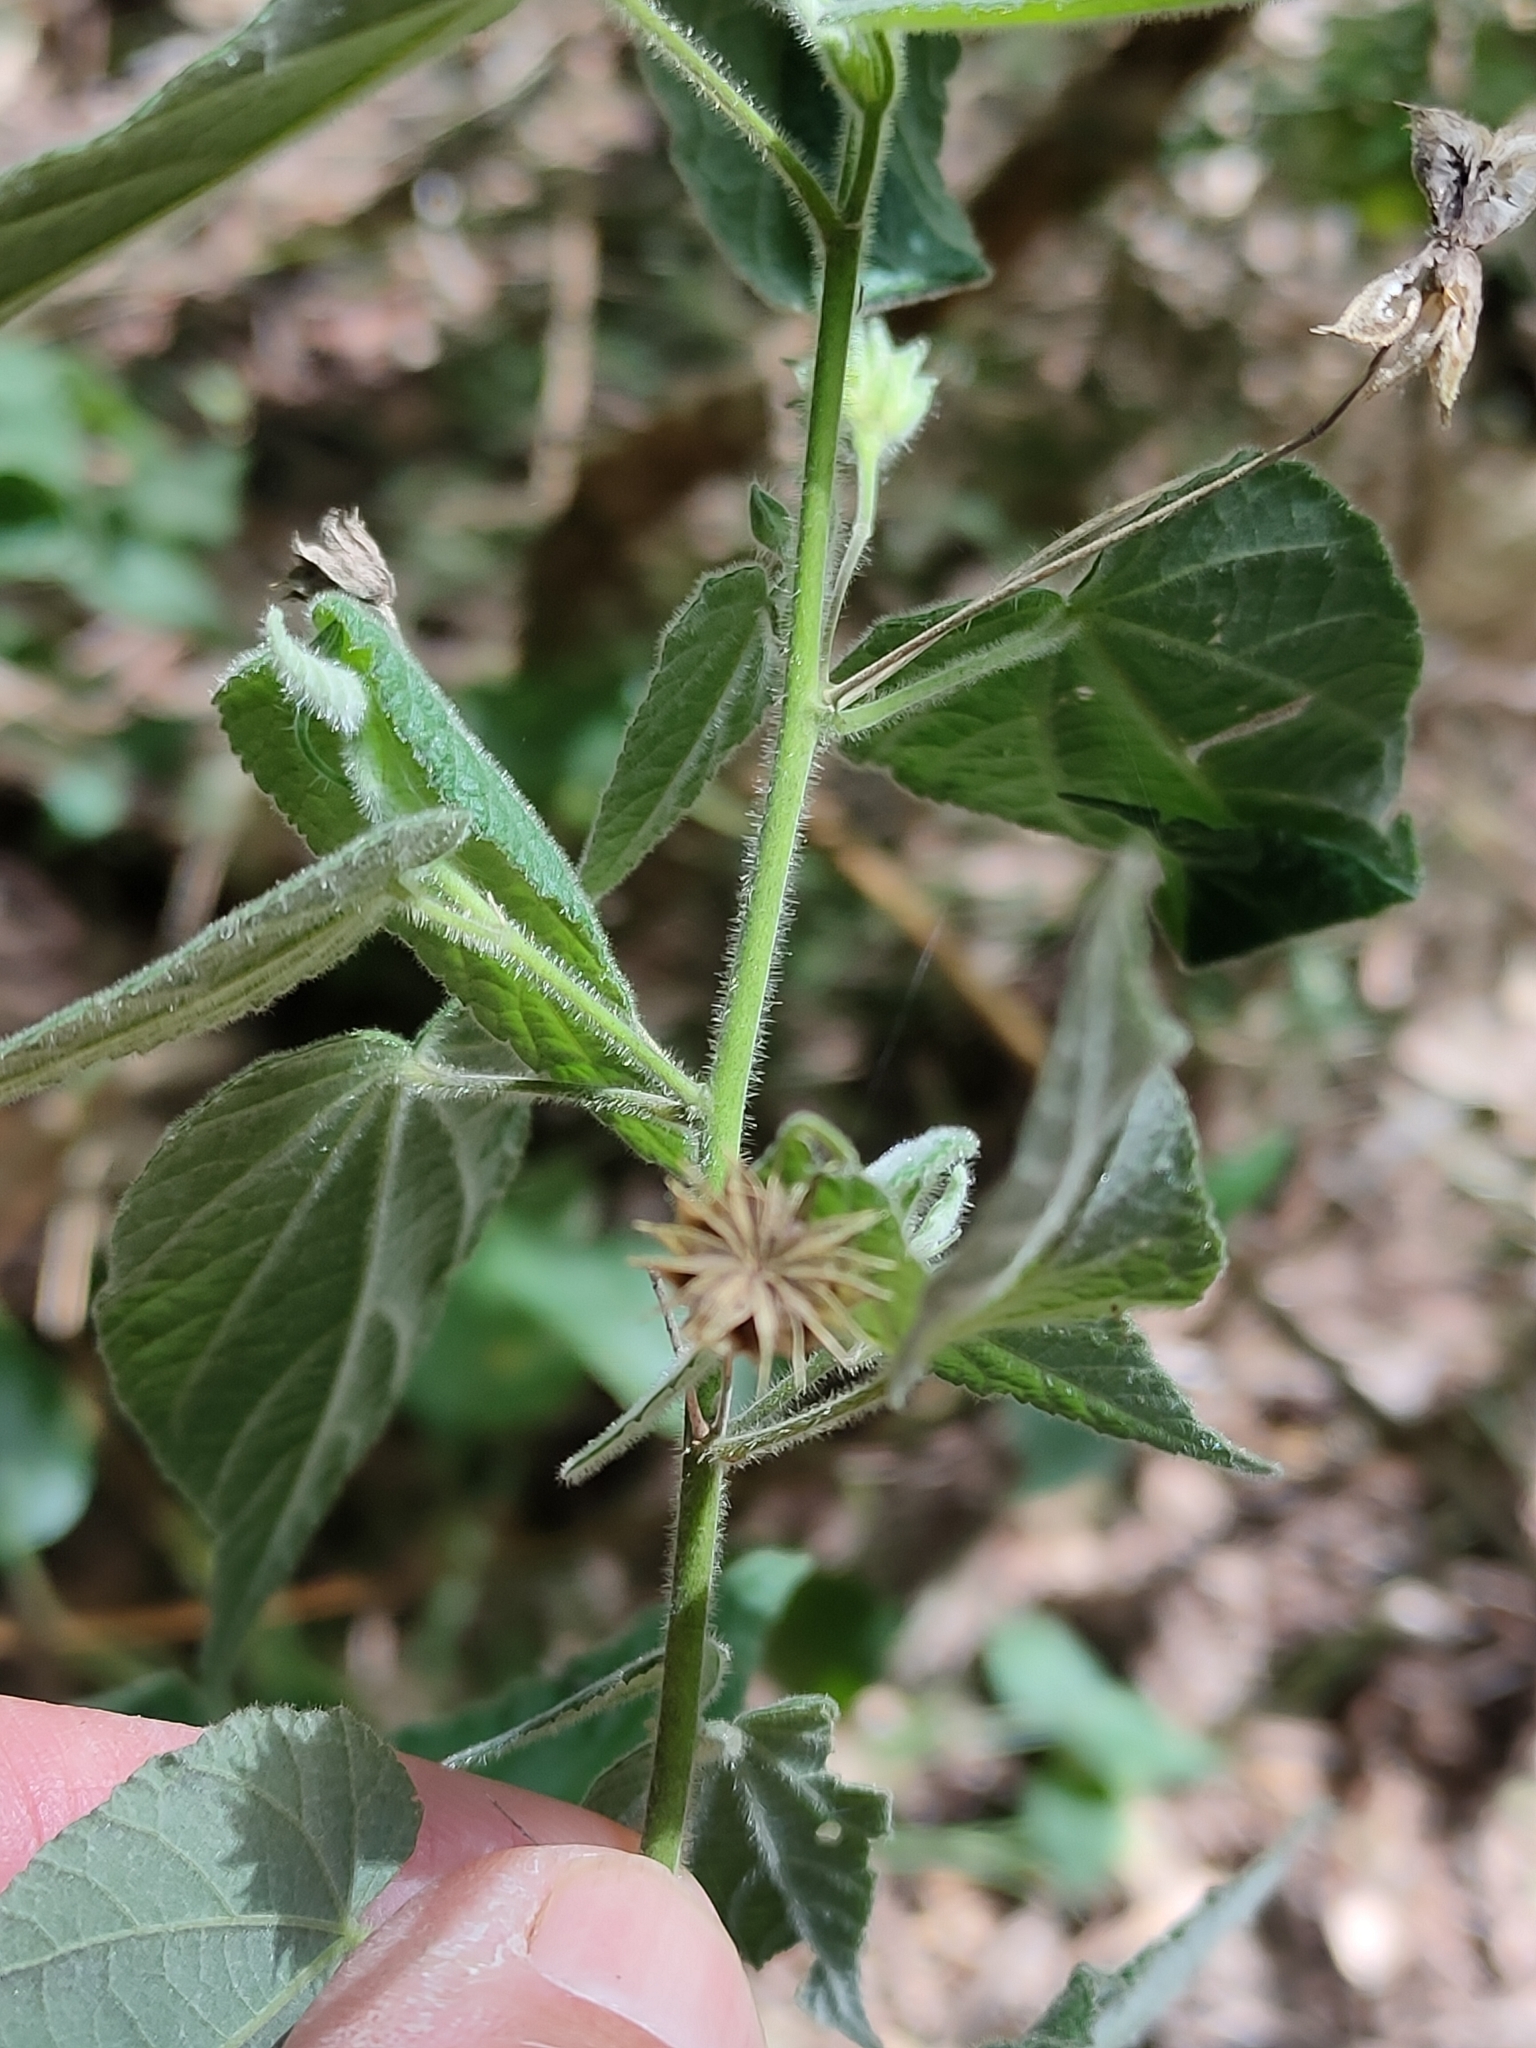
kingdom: Plantae
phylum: Tracheophyta
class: Magnoliopsida
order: Malvales
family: Malvaceae
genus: Abutilon
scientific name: Abutilon oxycarpum
